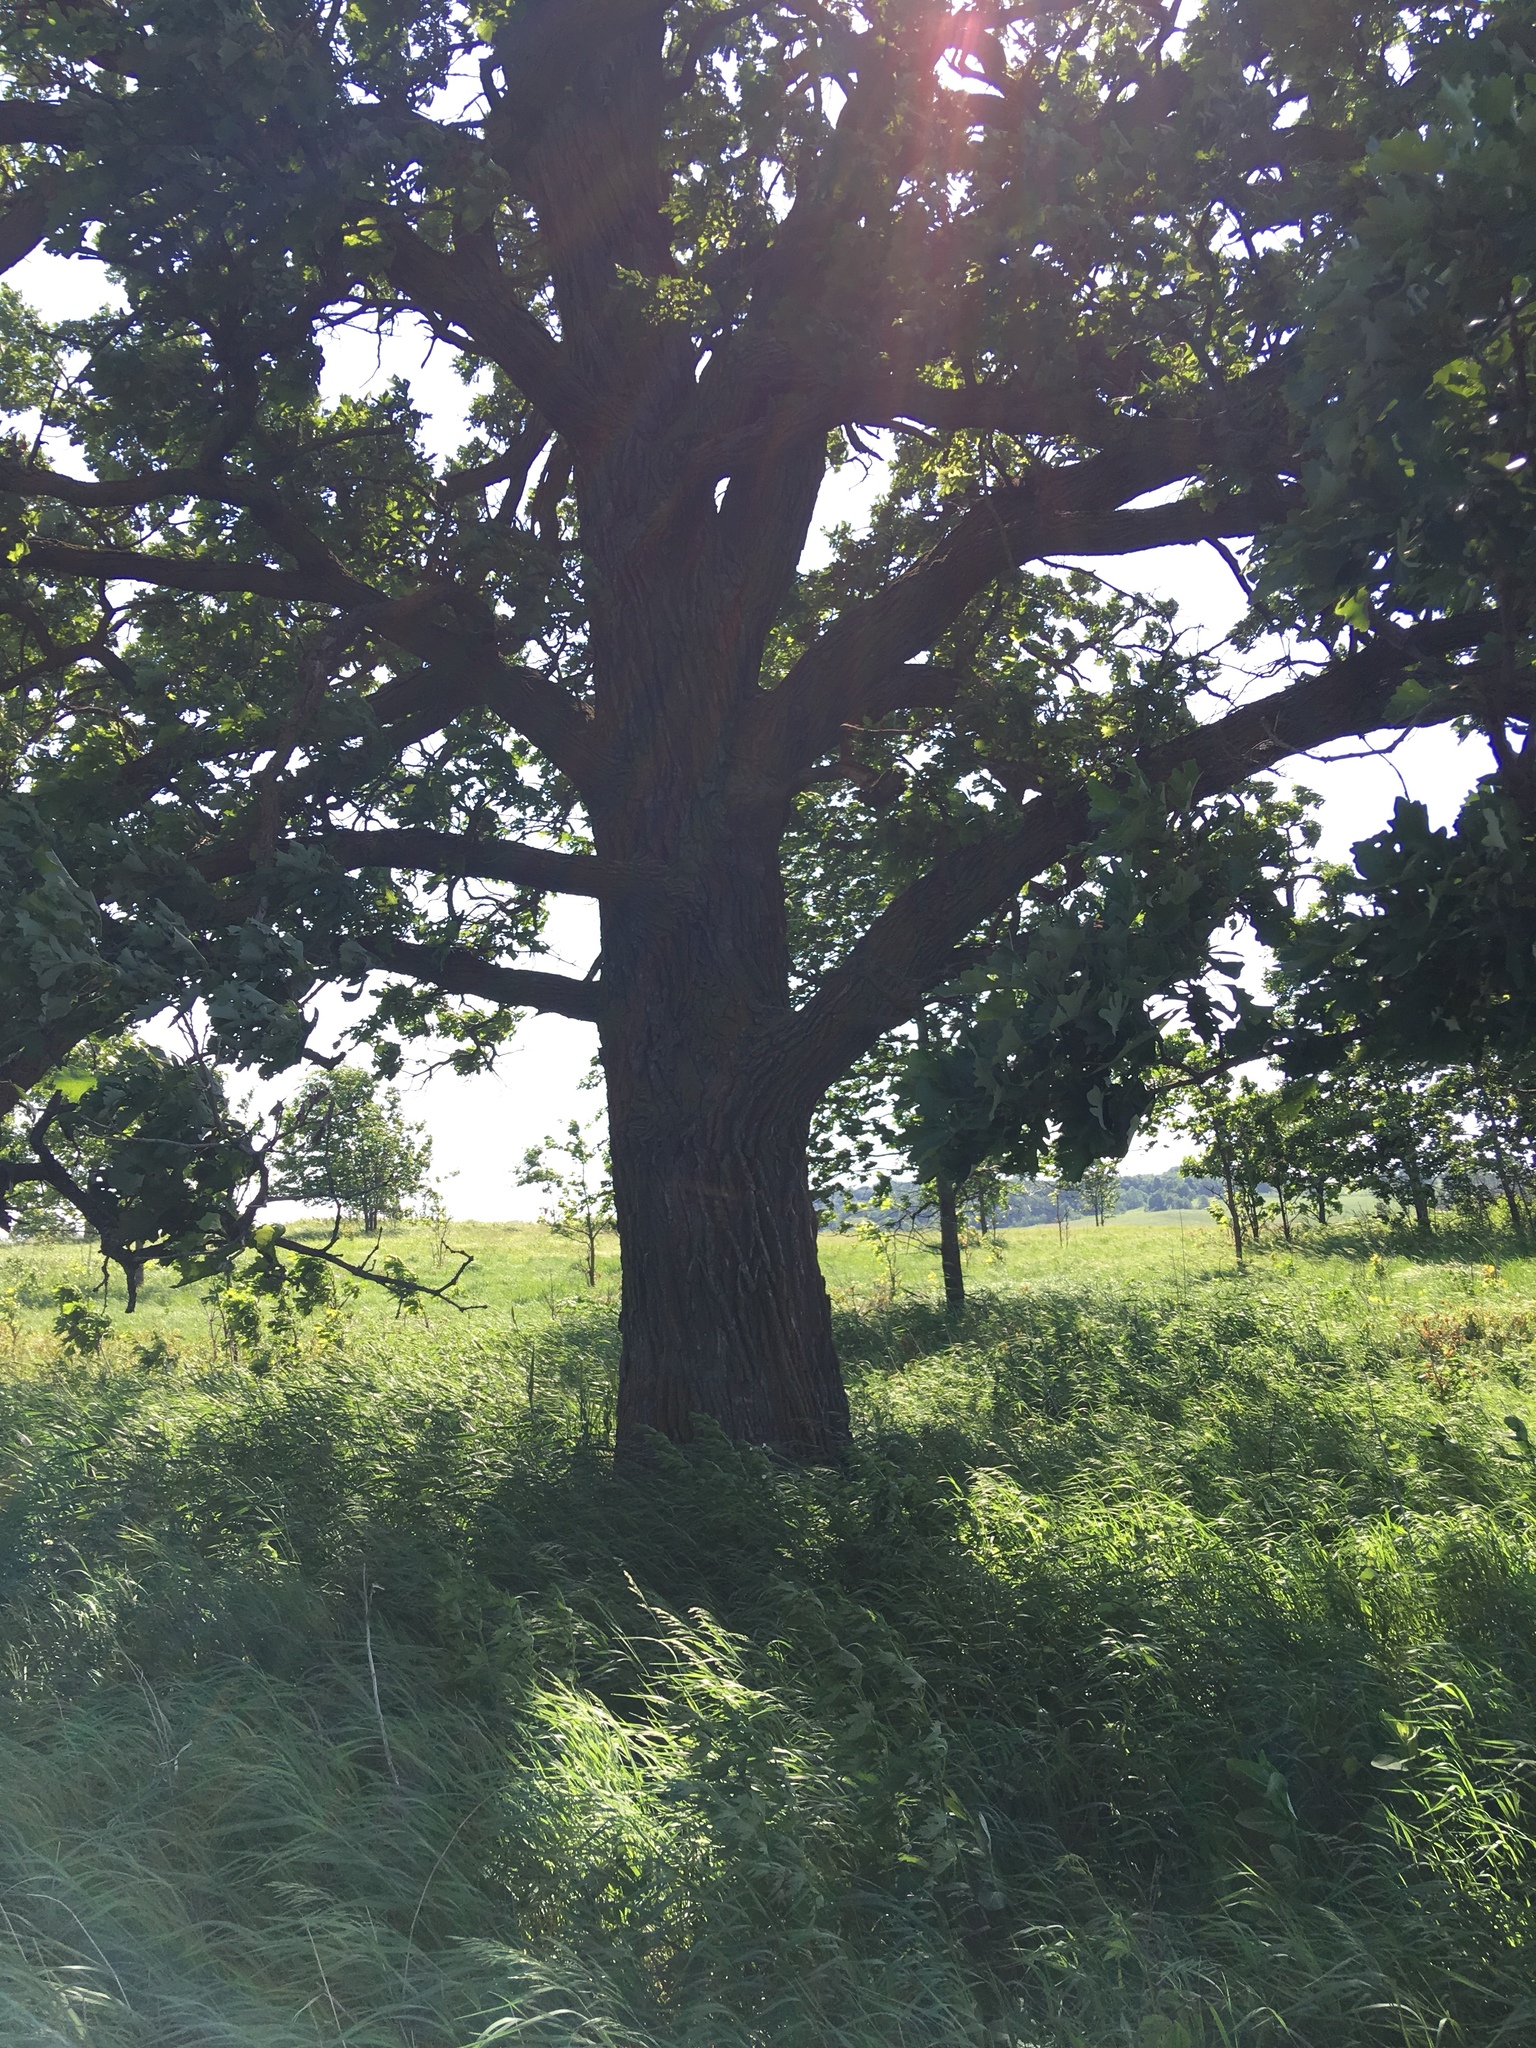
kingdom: Plantae
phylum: Tracheophyta
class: Magnoliopsida
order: Fagales
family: Fagaceae
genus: Quercus
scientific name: Quercus macrocarpa
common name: Bur oak
